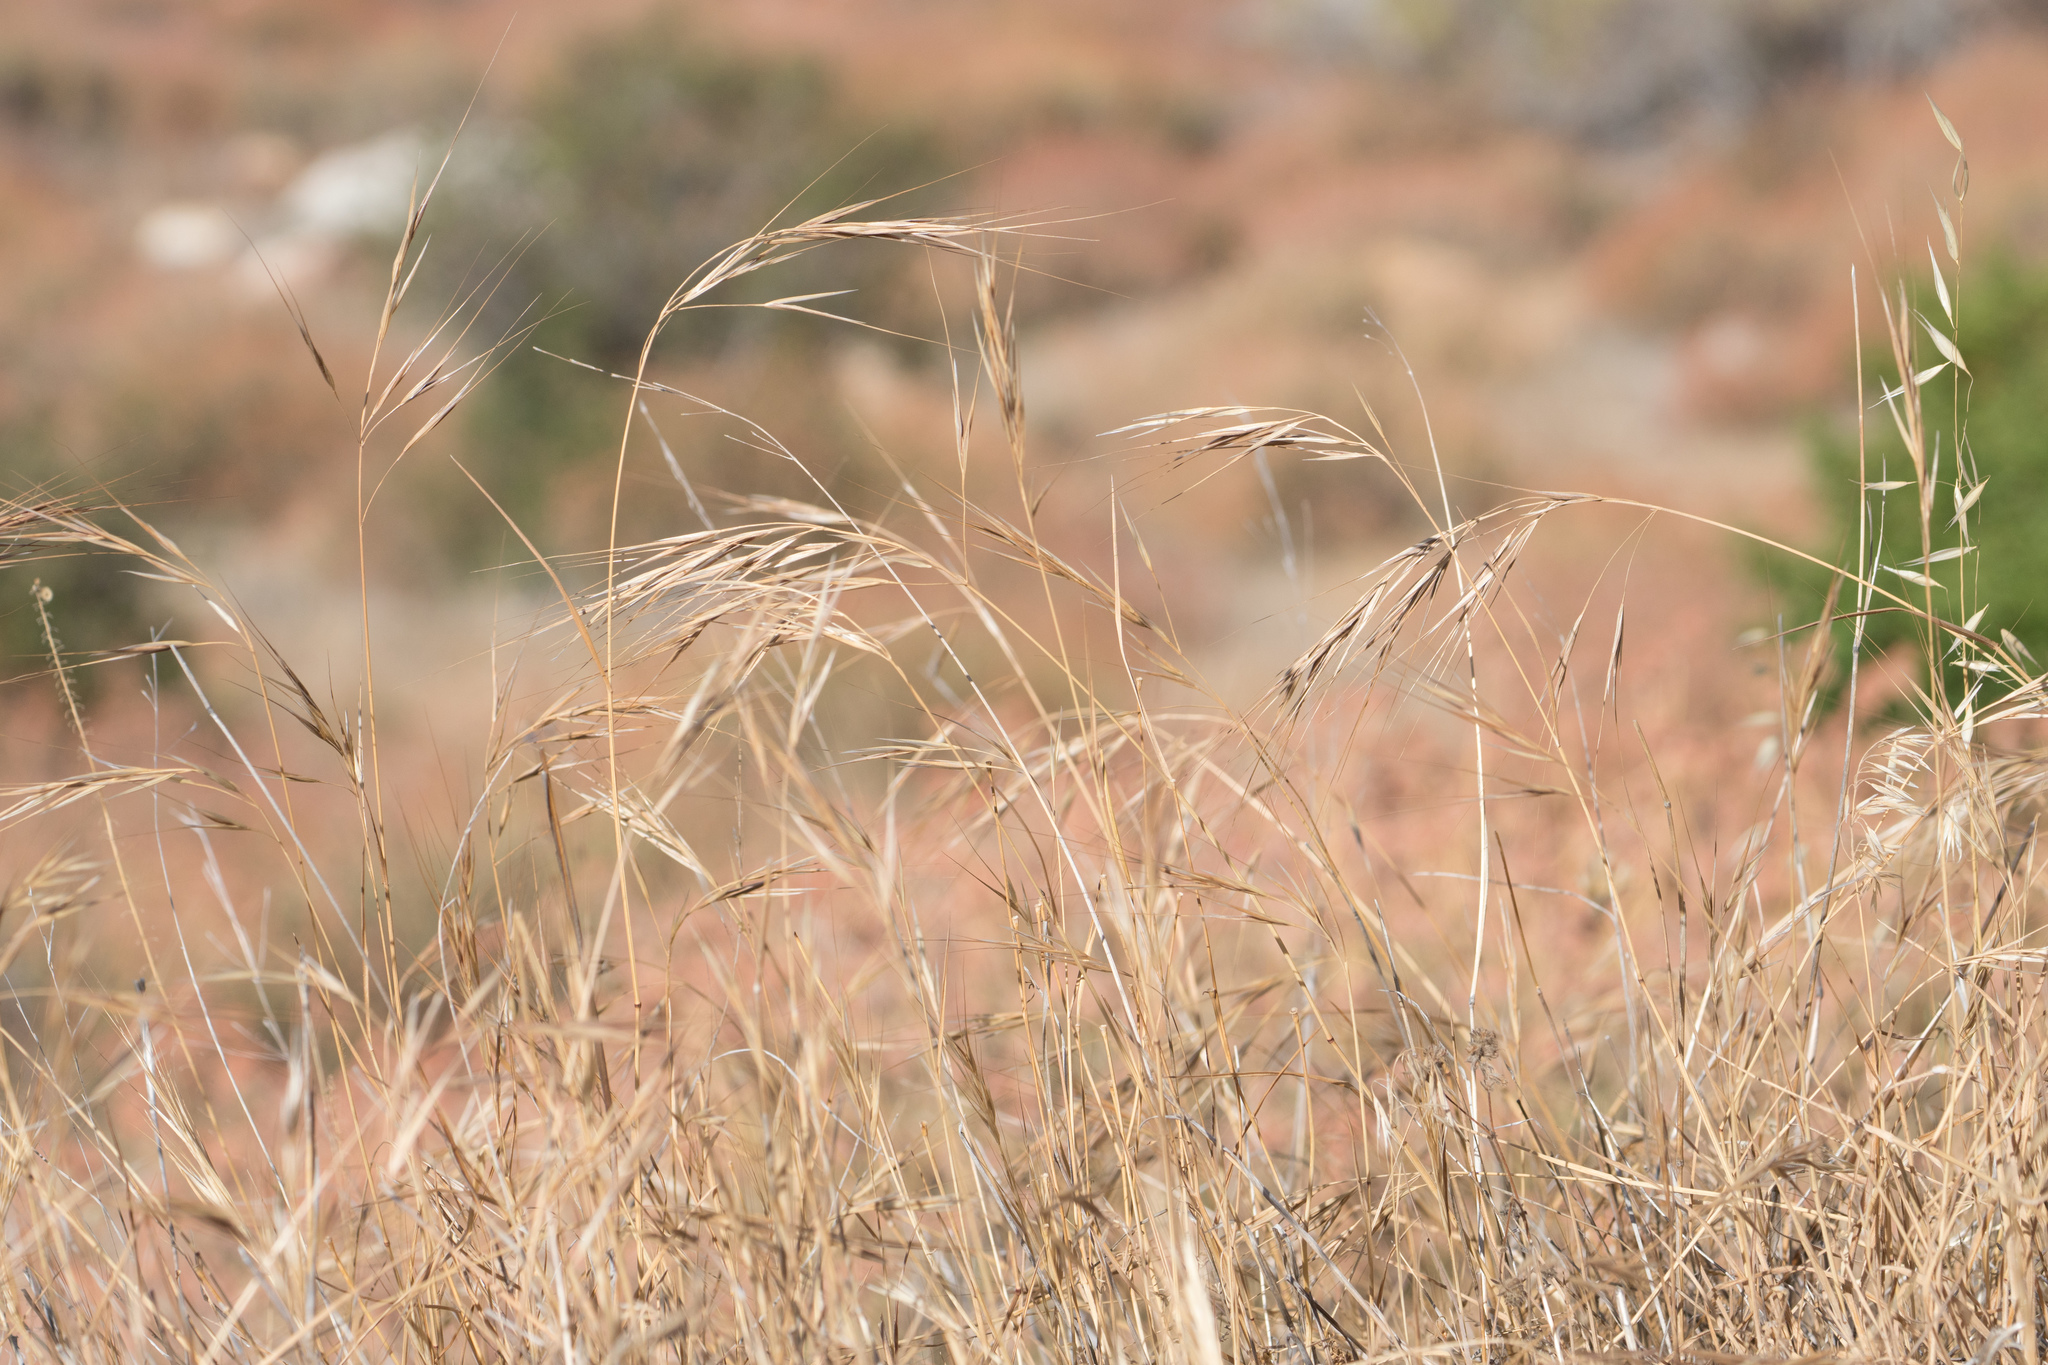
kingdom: Plantae
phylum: Tracheophyta
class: Liliopsida
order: Poales
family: Poaceae
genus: Bromus
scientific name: Bromus diandrus
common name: Ripgut brome
